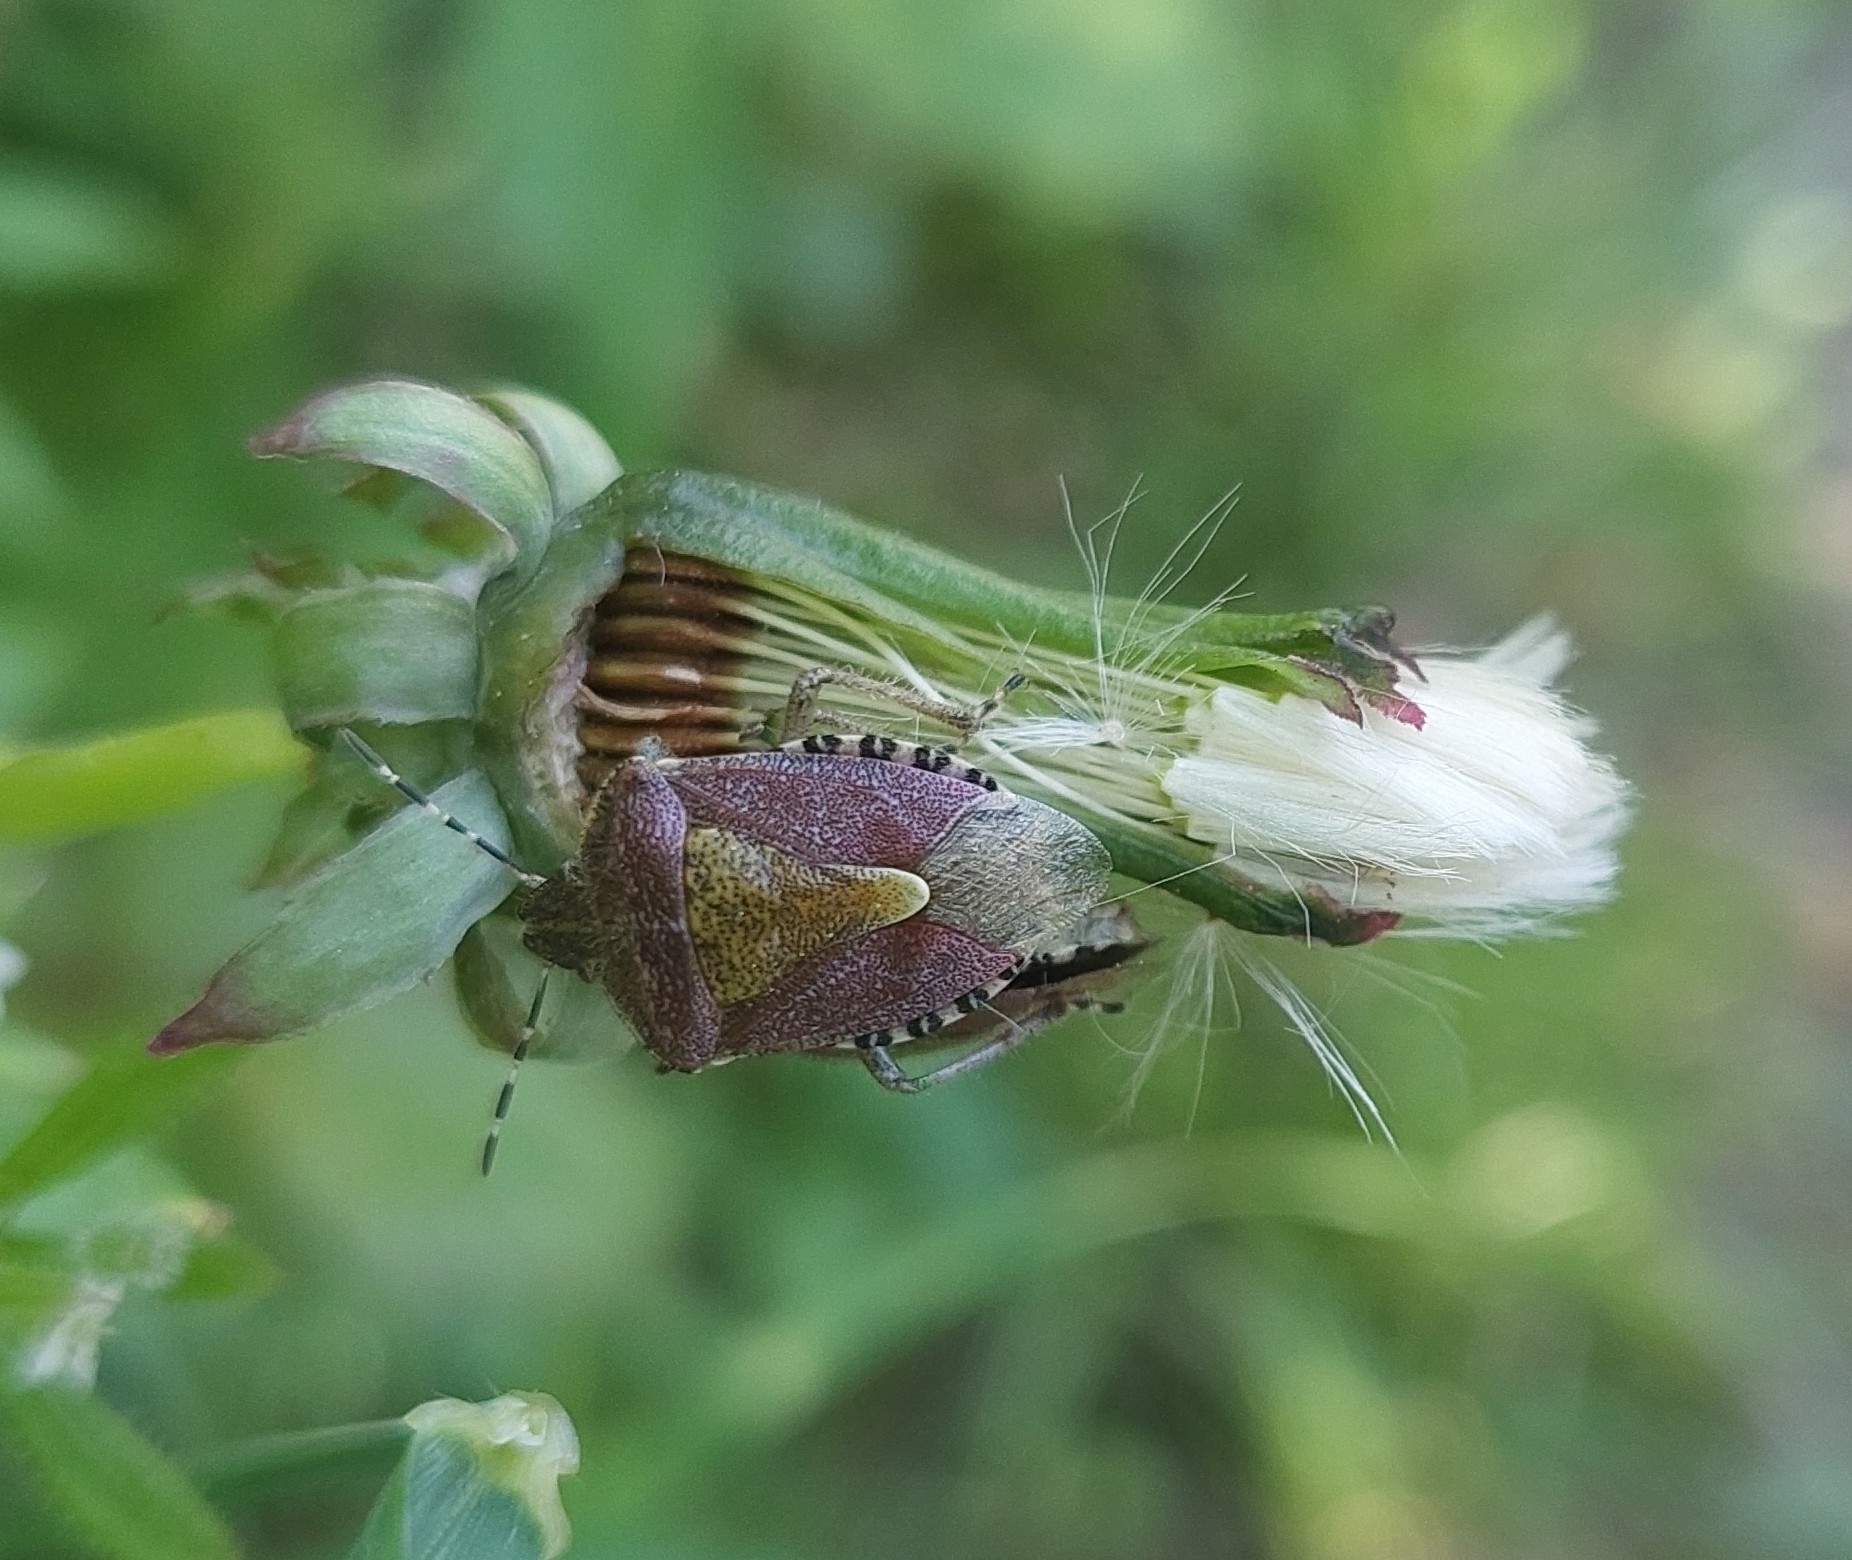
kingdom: Animalia
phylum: Arthropoda
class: Insecta
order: Hemiptera
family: Pentatomidae
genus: Dolycoris
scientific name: Dolycoris baccarum
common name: Sloe bug
